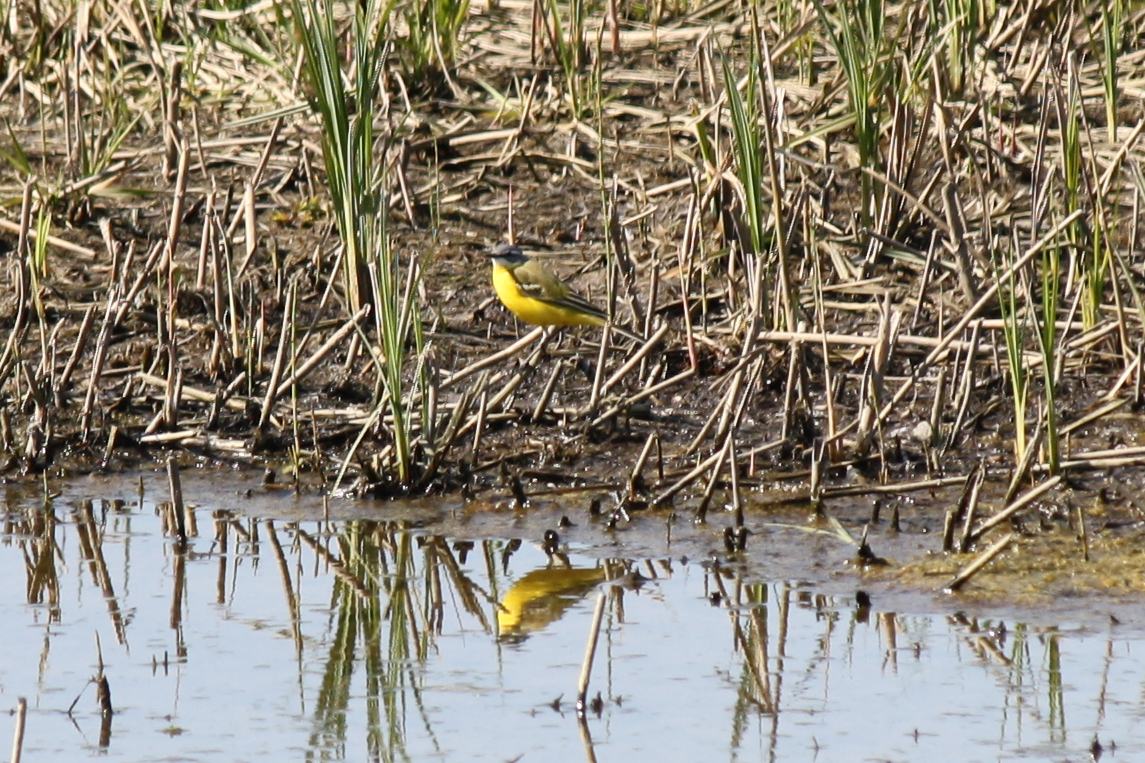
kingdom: Animalia
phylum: Chordata
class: Aves
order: Passeriformes
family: Motacillidae
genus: Motacilla
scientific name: Motacilla flava
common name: Western yellow wagtail
